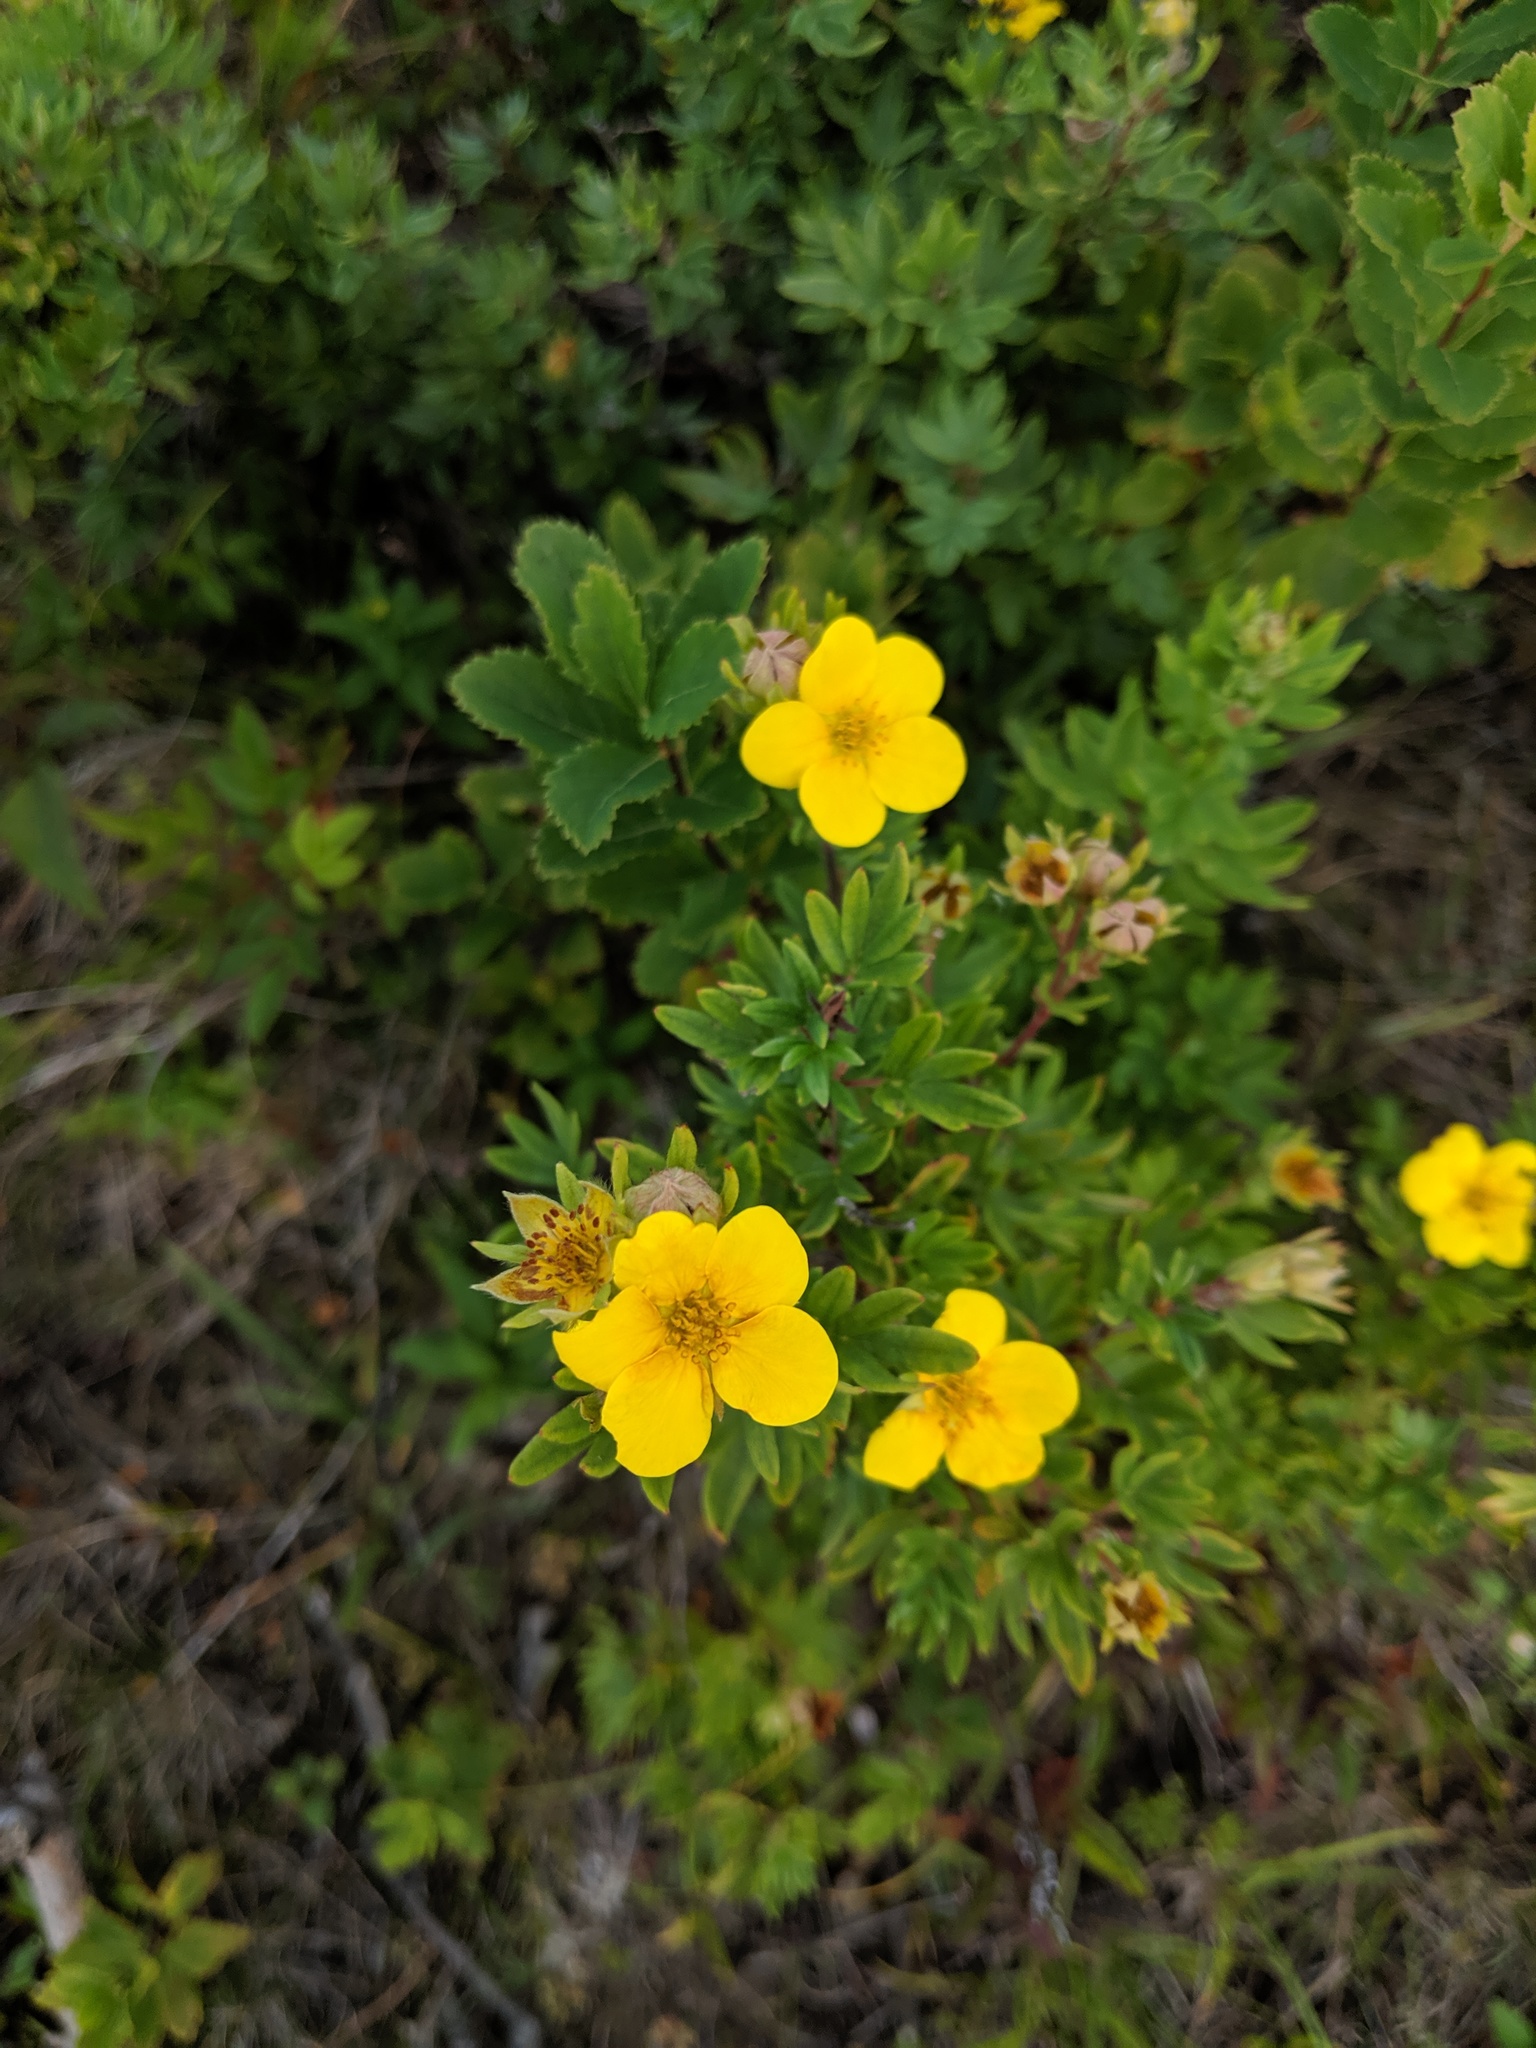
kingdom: Plantae
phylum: Tracheophyta
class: Magnoliopsida
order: Rosales
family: Rosaceae
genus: Dasiphora
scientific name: Dasiphora fruticosa
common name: Shrubby cinquefoil
